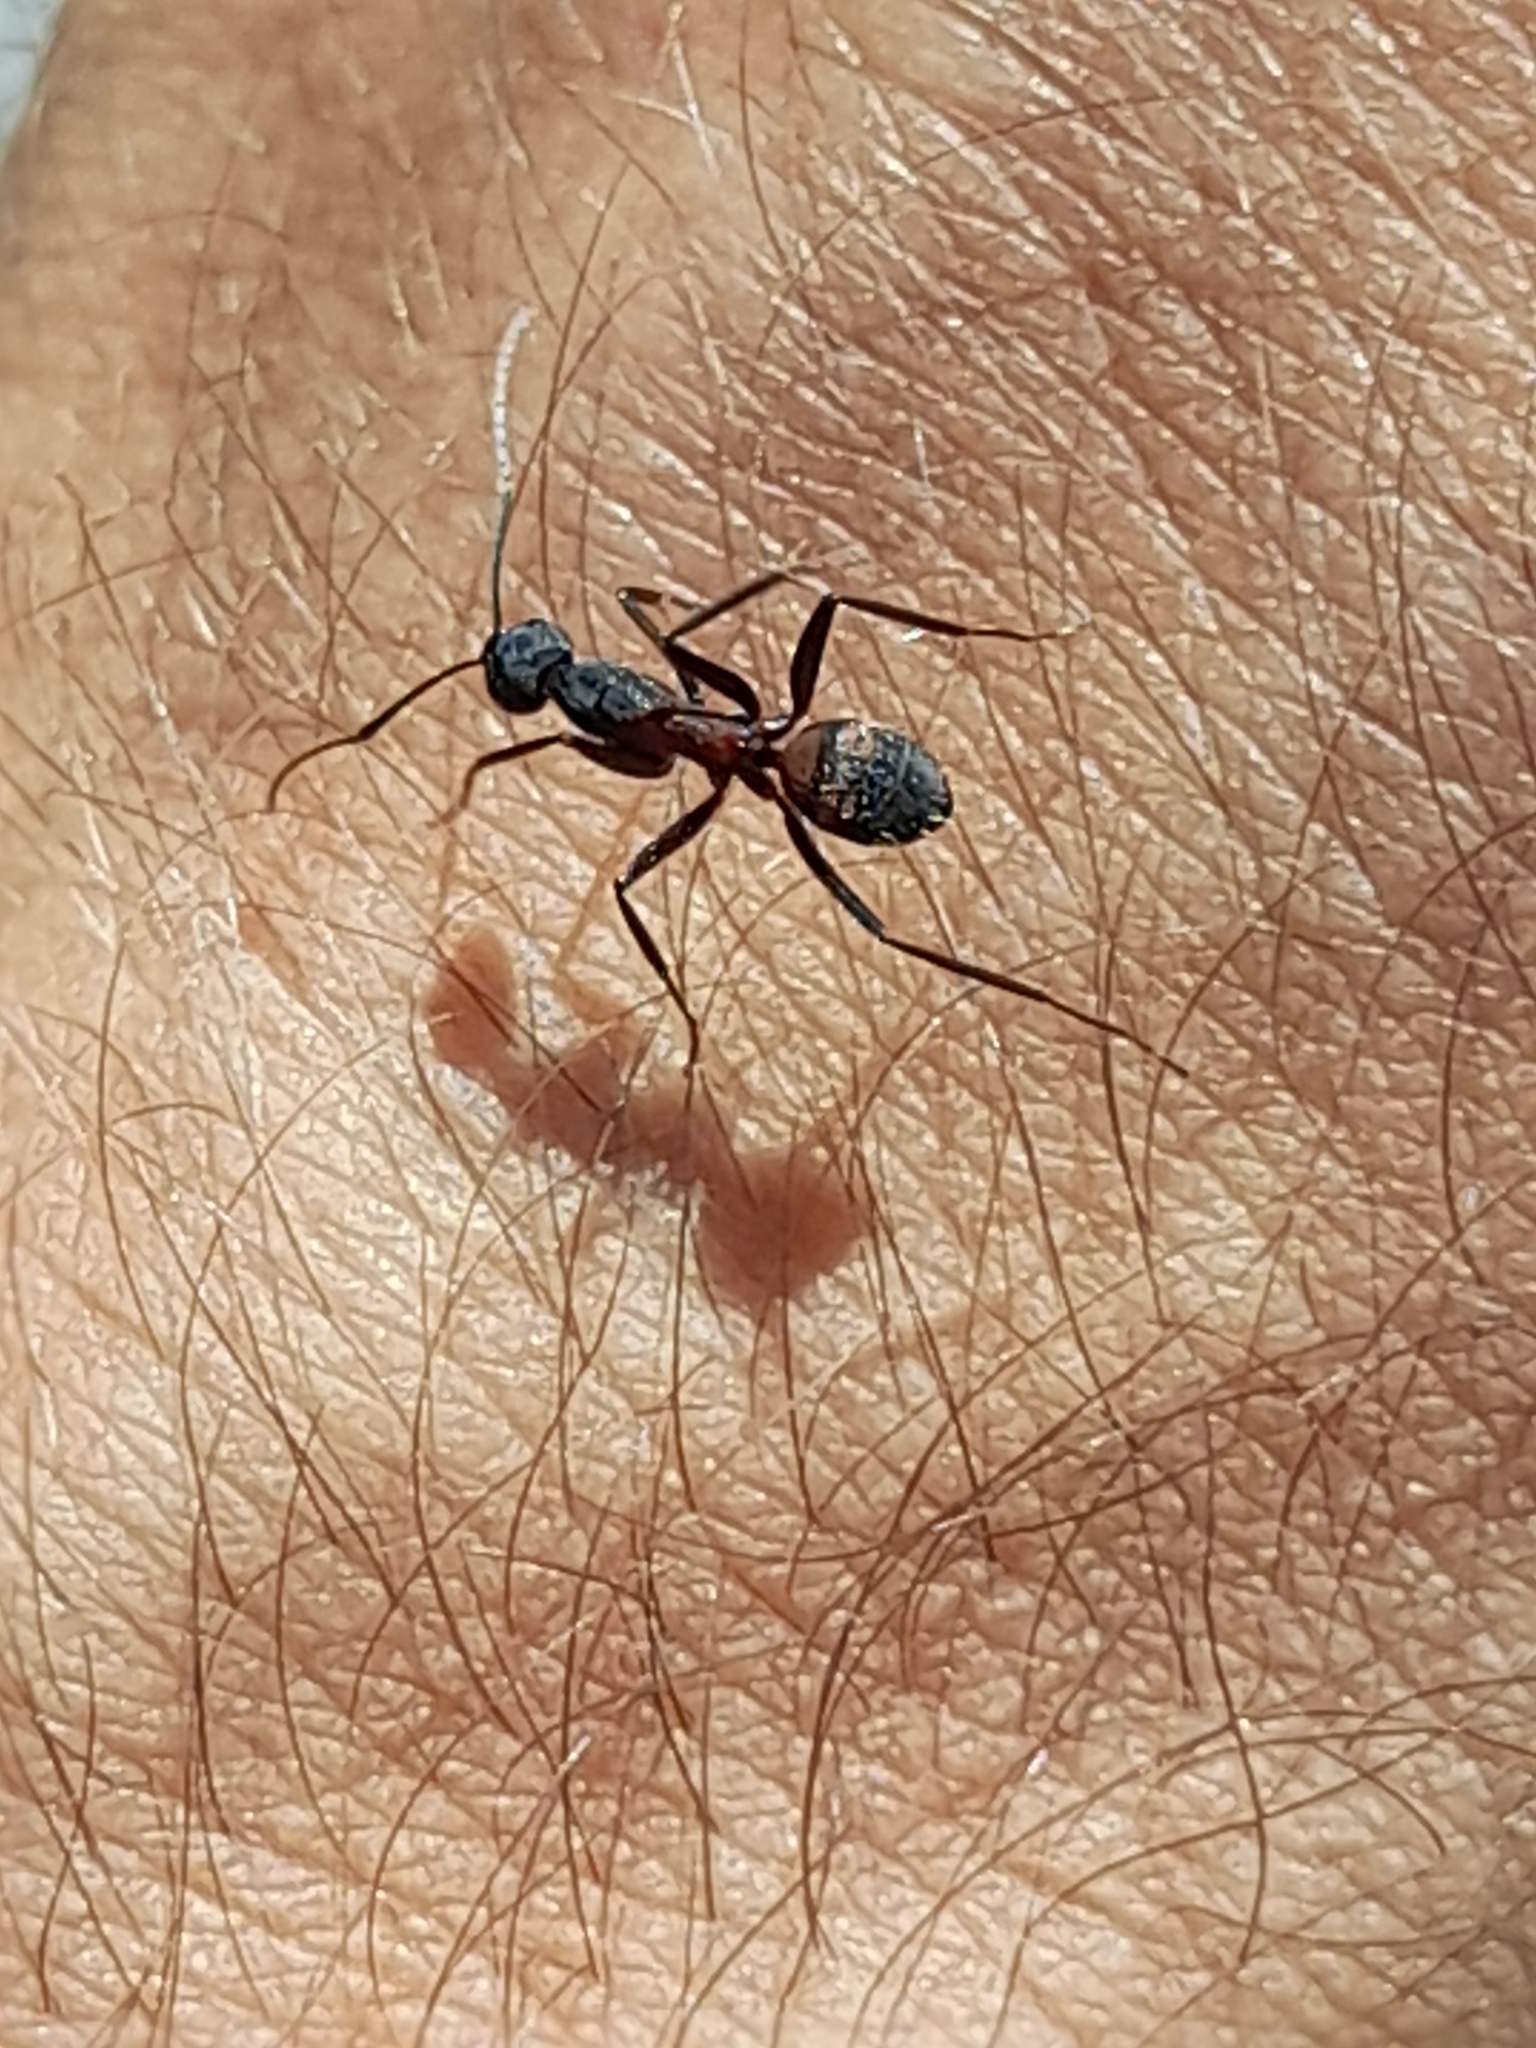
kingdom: Animalia
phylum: Arthropoda
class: Insecta
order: Hymenoptera
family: Formicidae
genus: Camponotus
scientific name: Camponotus cruentatus
